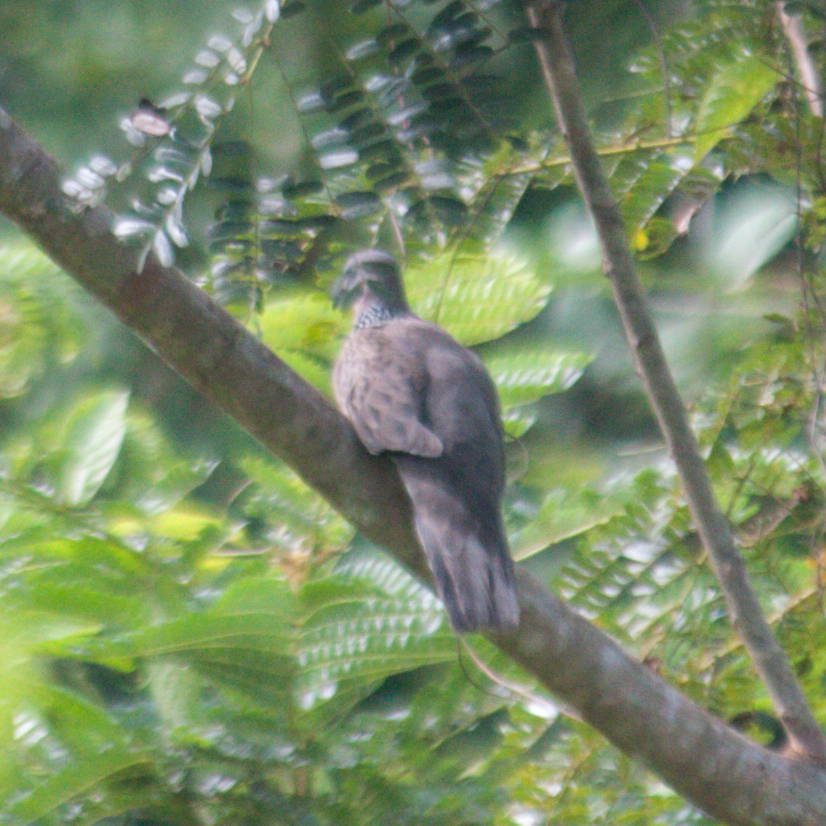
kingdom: Animalia
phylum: Chordata
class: Aves
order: Columbiformes
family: Columbidae
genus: Spilopelia
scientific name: Spilopelia chinensis
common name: Spotted dove
